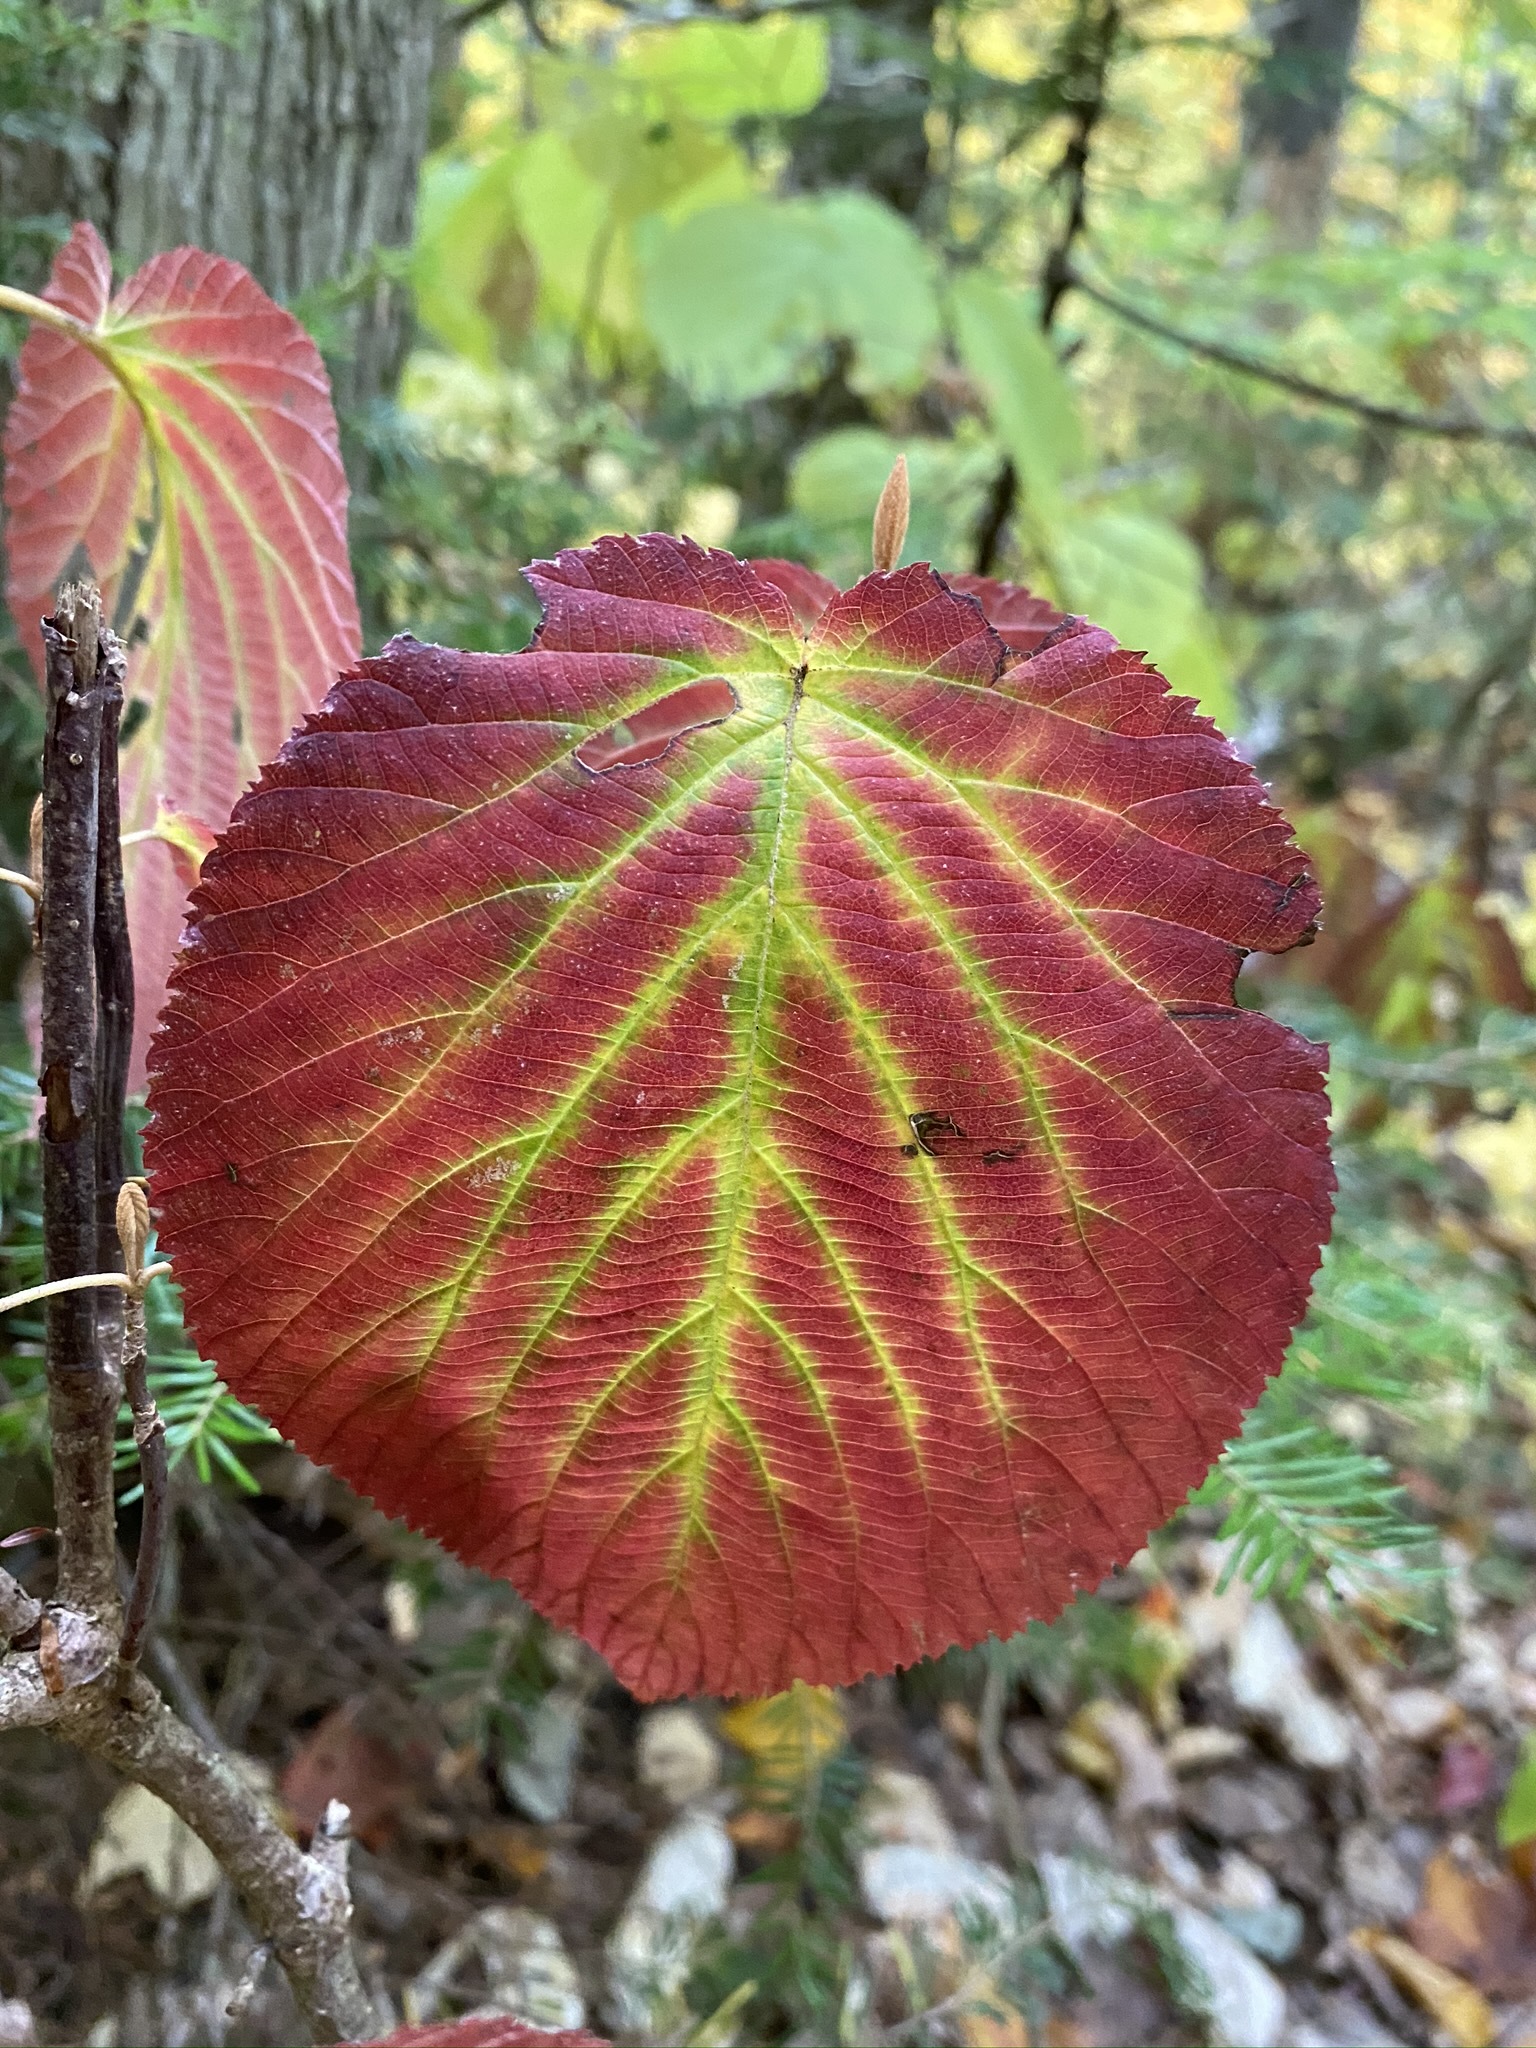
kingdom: Plantae
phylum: Tracheophyta
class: Magnoliopsida
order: Dipsacales
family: Viburnaceae
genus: Viburnum
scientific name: Viburnum lantanoides
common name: Hobblebush
